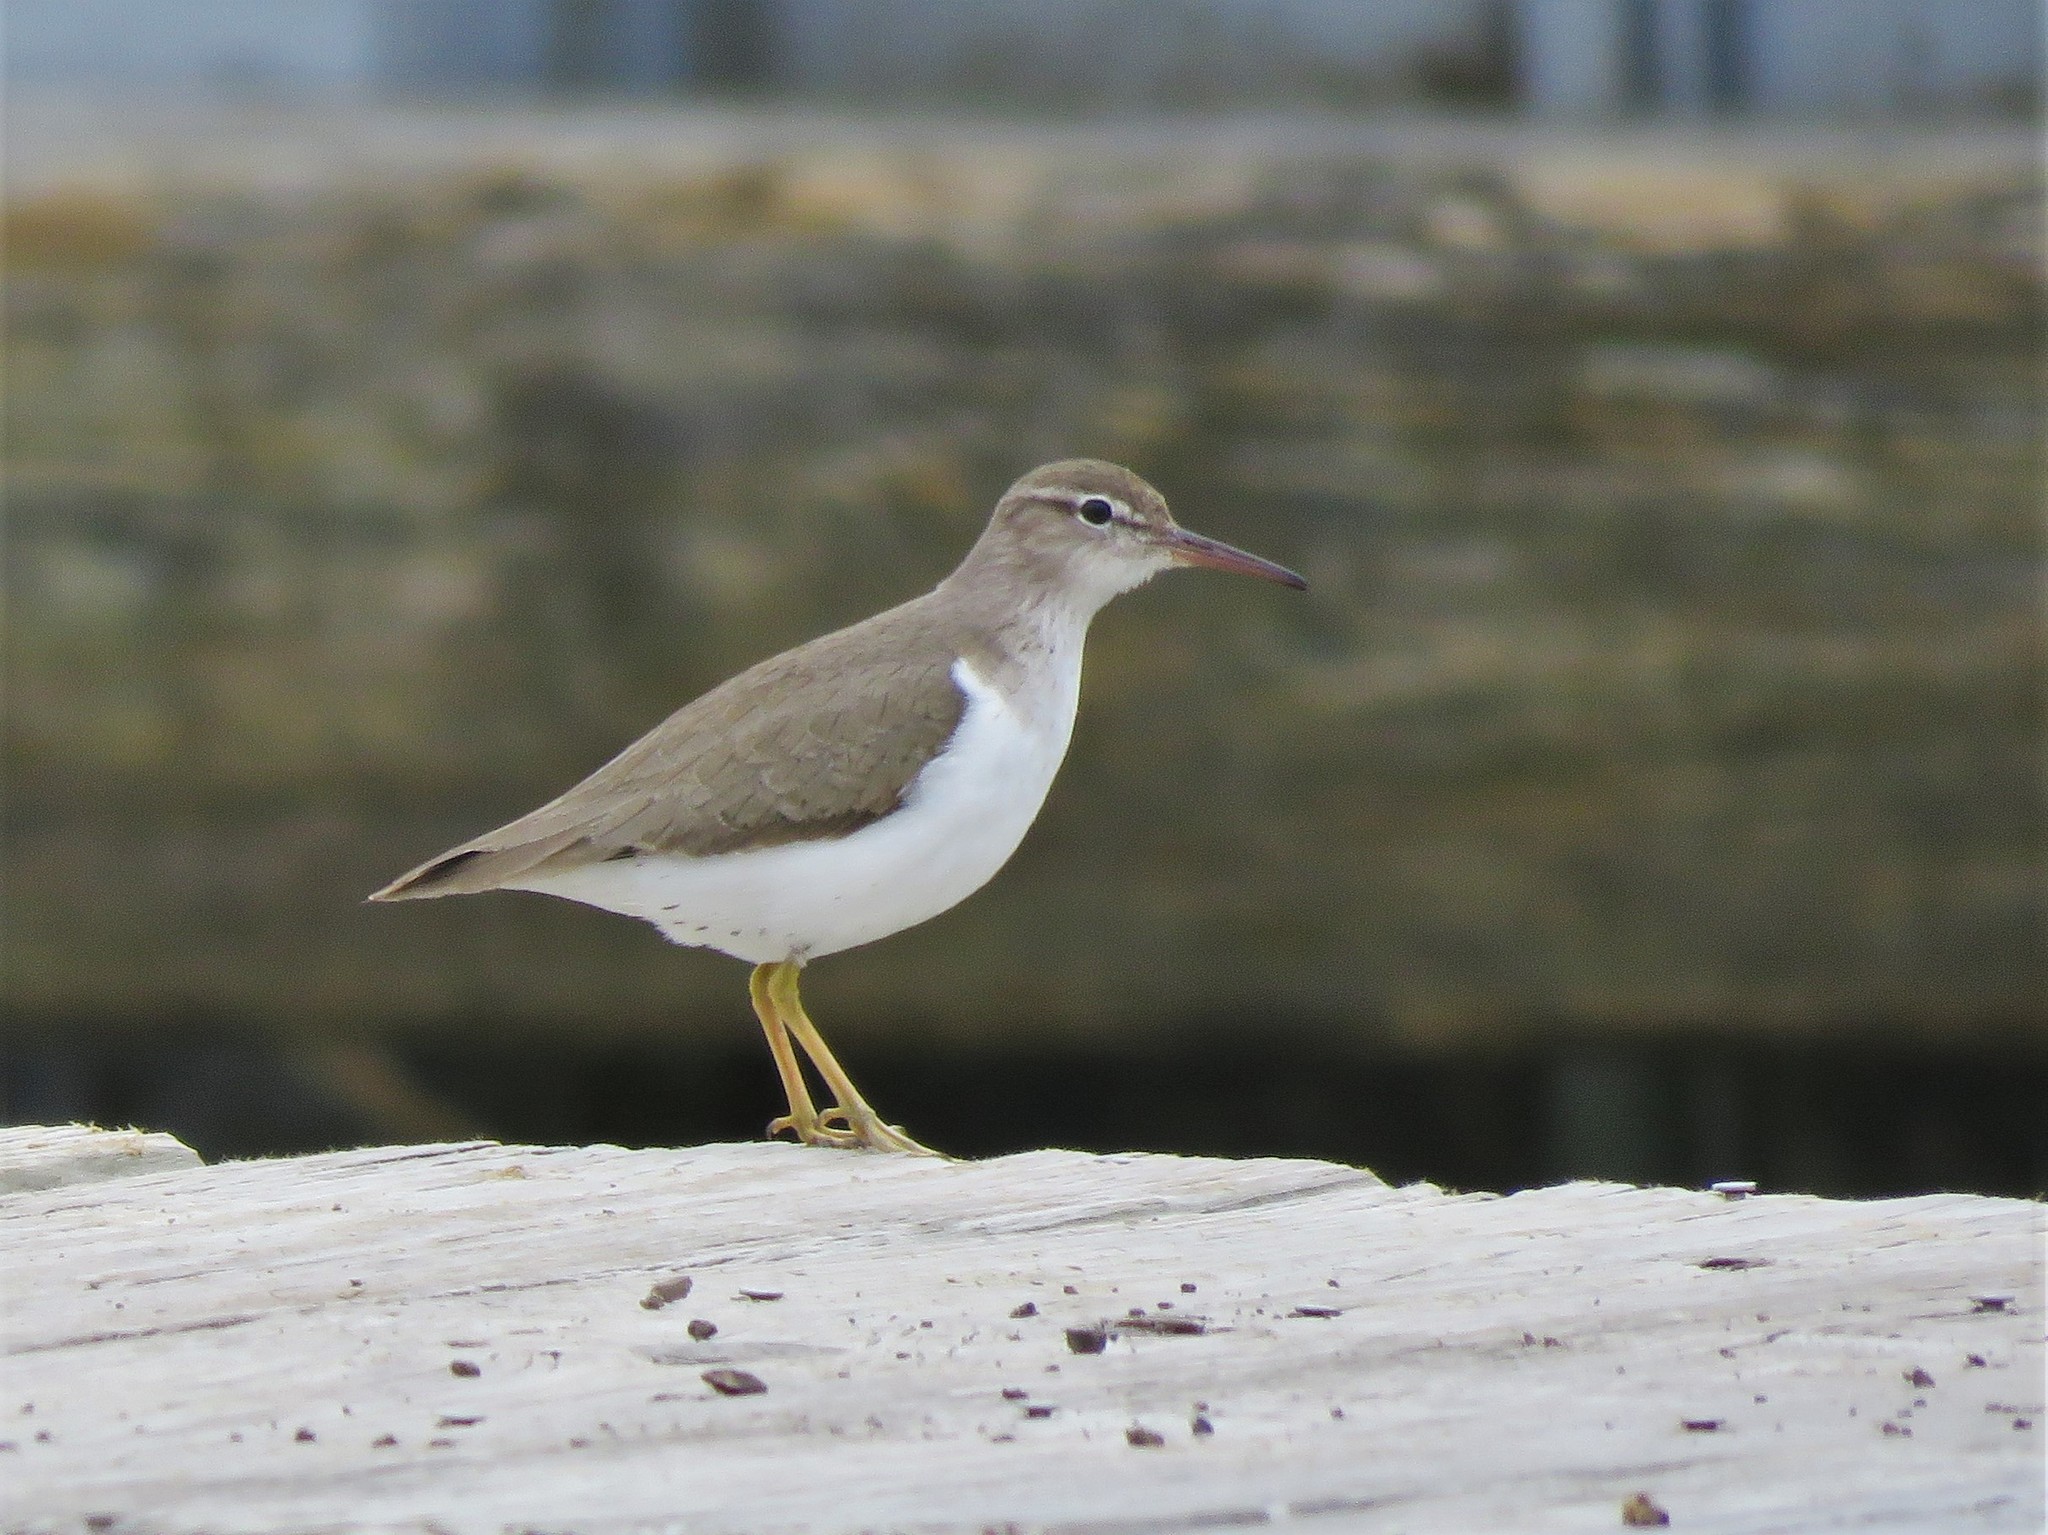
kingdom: Animalia
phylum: Chordata
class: Aves
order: Charadriiformes
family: Scolopacidae
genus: Actitis
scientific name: Actitis macularius
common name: Spotted sandpiper
